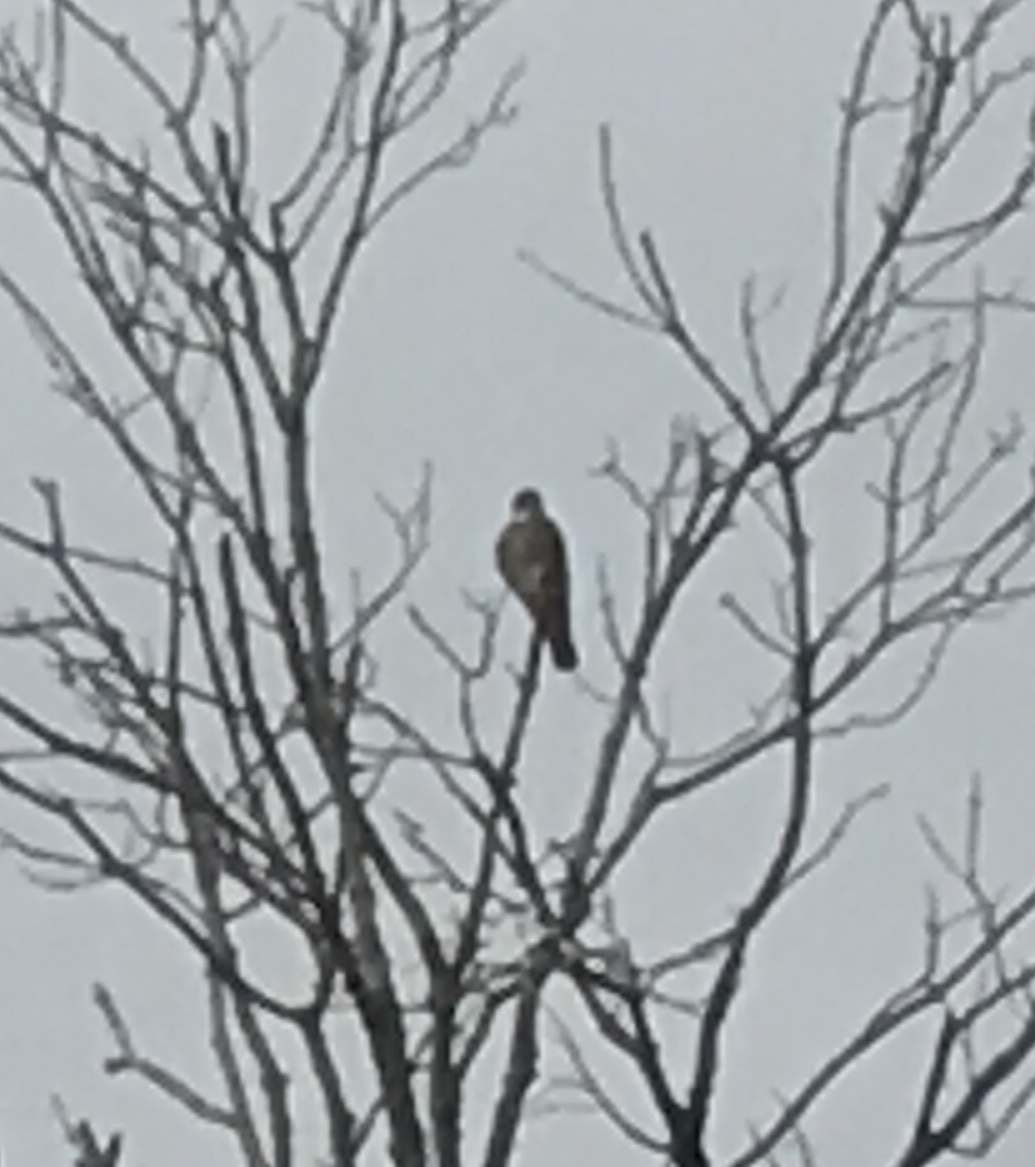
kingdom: Animalia
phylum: Chordata
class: Aves
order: Falconiformes
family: Falconidae
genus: Falco
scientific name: Falco columbarius
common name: Merlin
